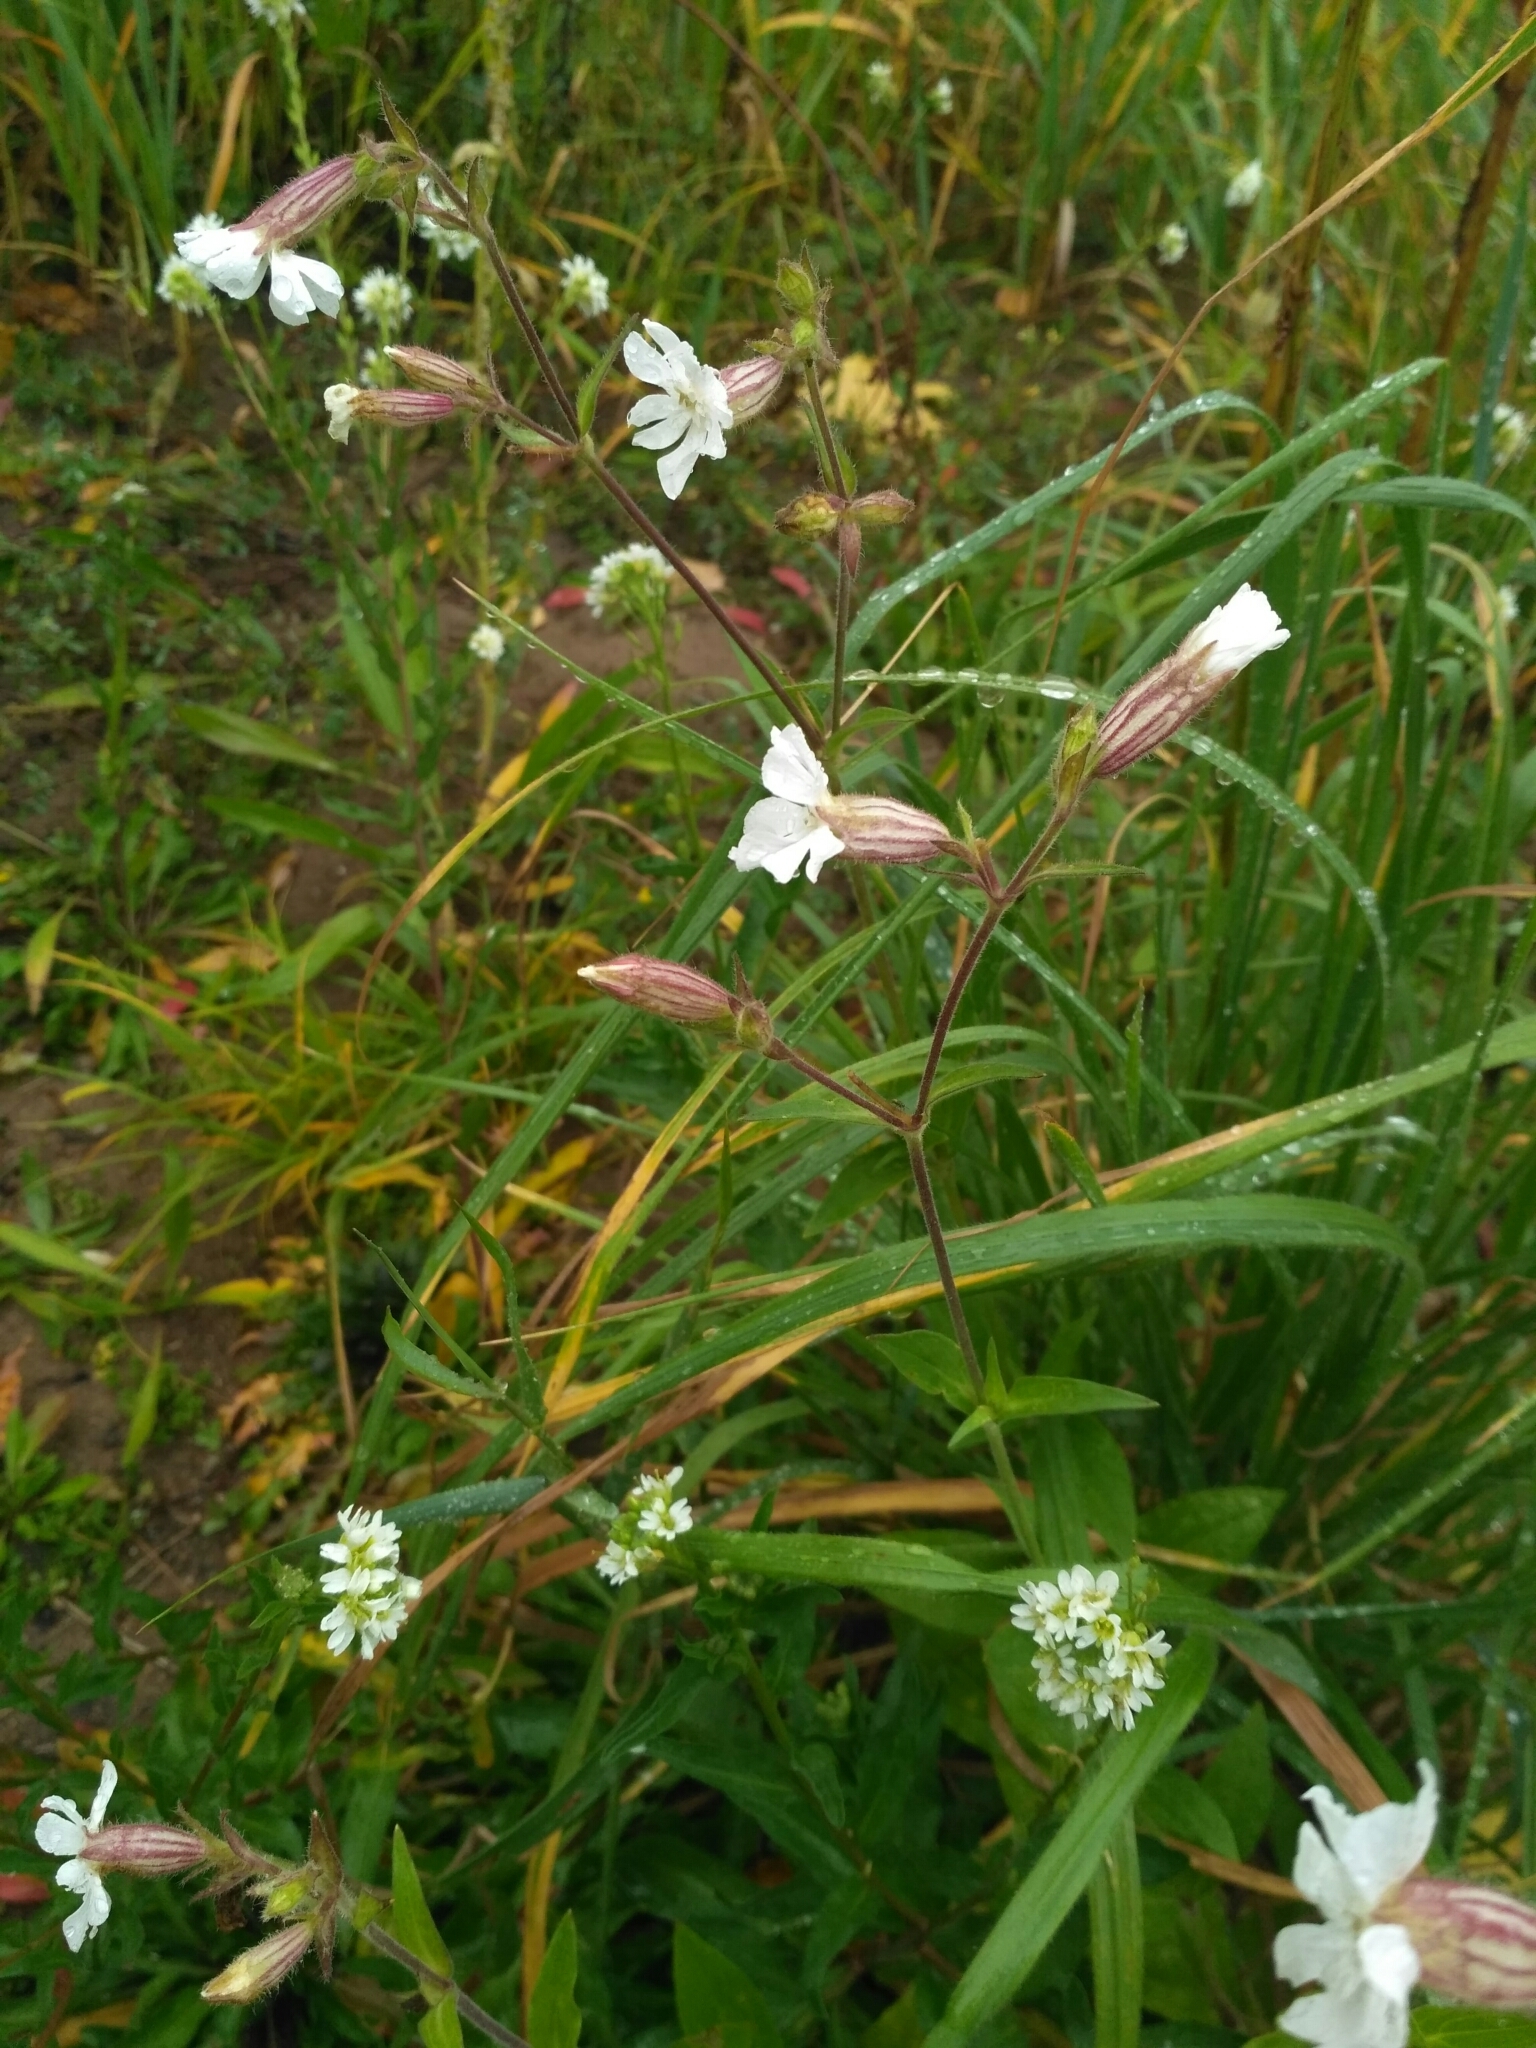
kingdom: Plantae
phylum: Tracheophyta
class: Magnoliopsida
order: Caryophyllales
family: Caryophyllaceae
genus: Silene
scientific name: Silene latifolia
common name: White campion
